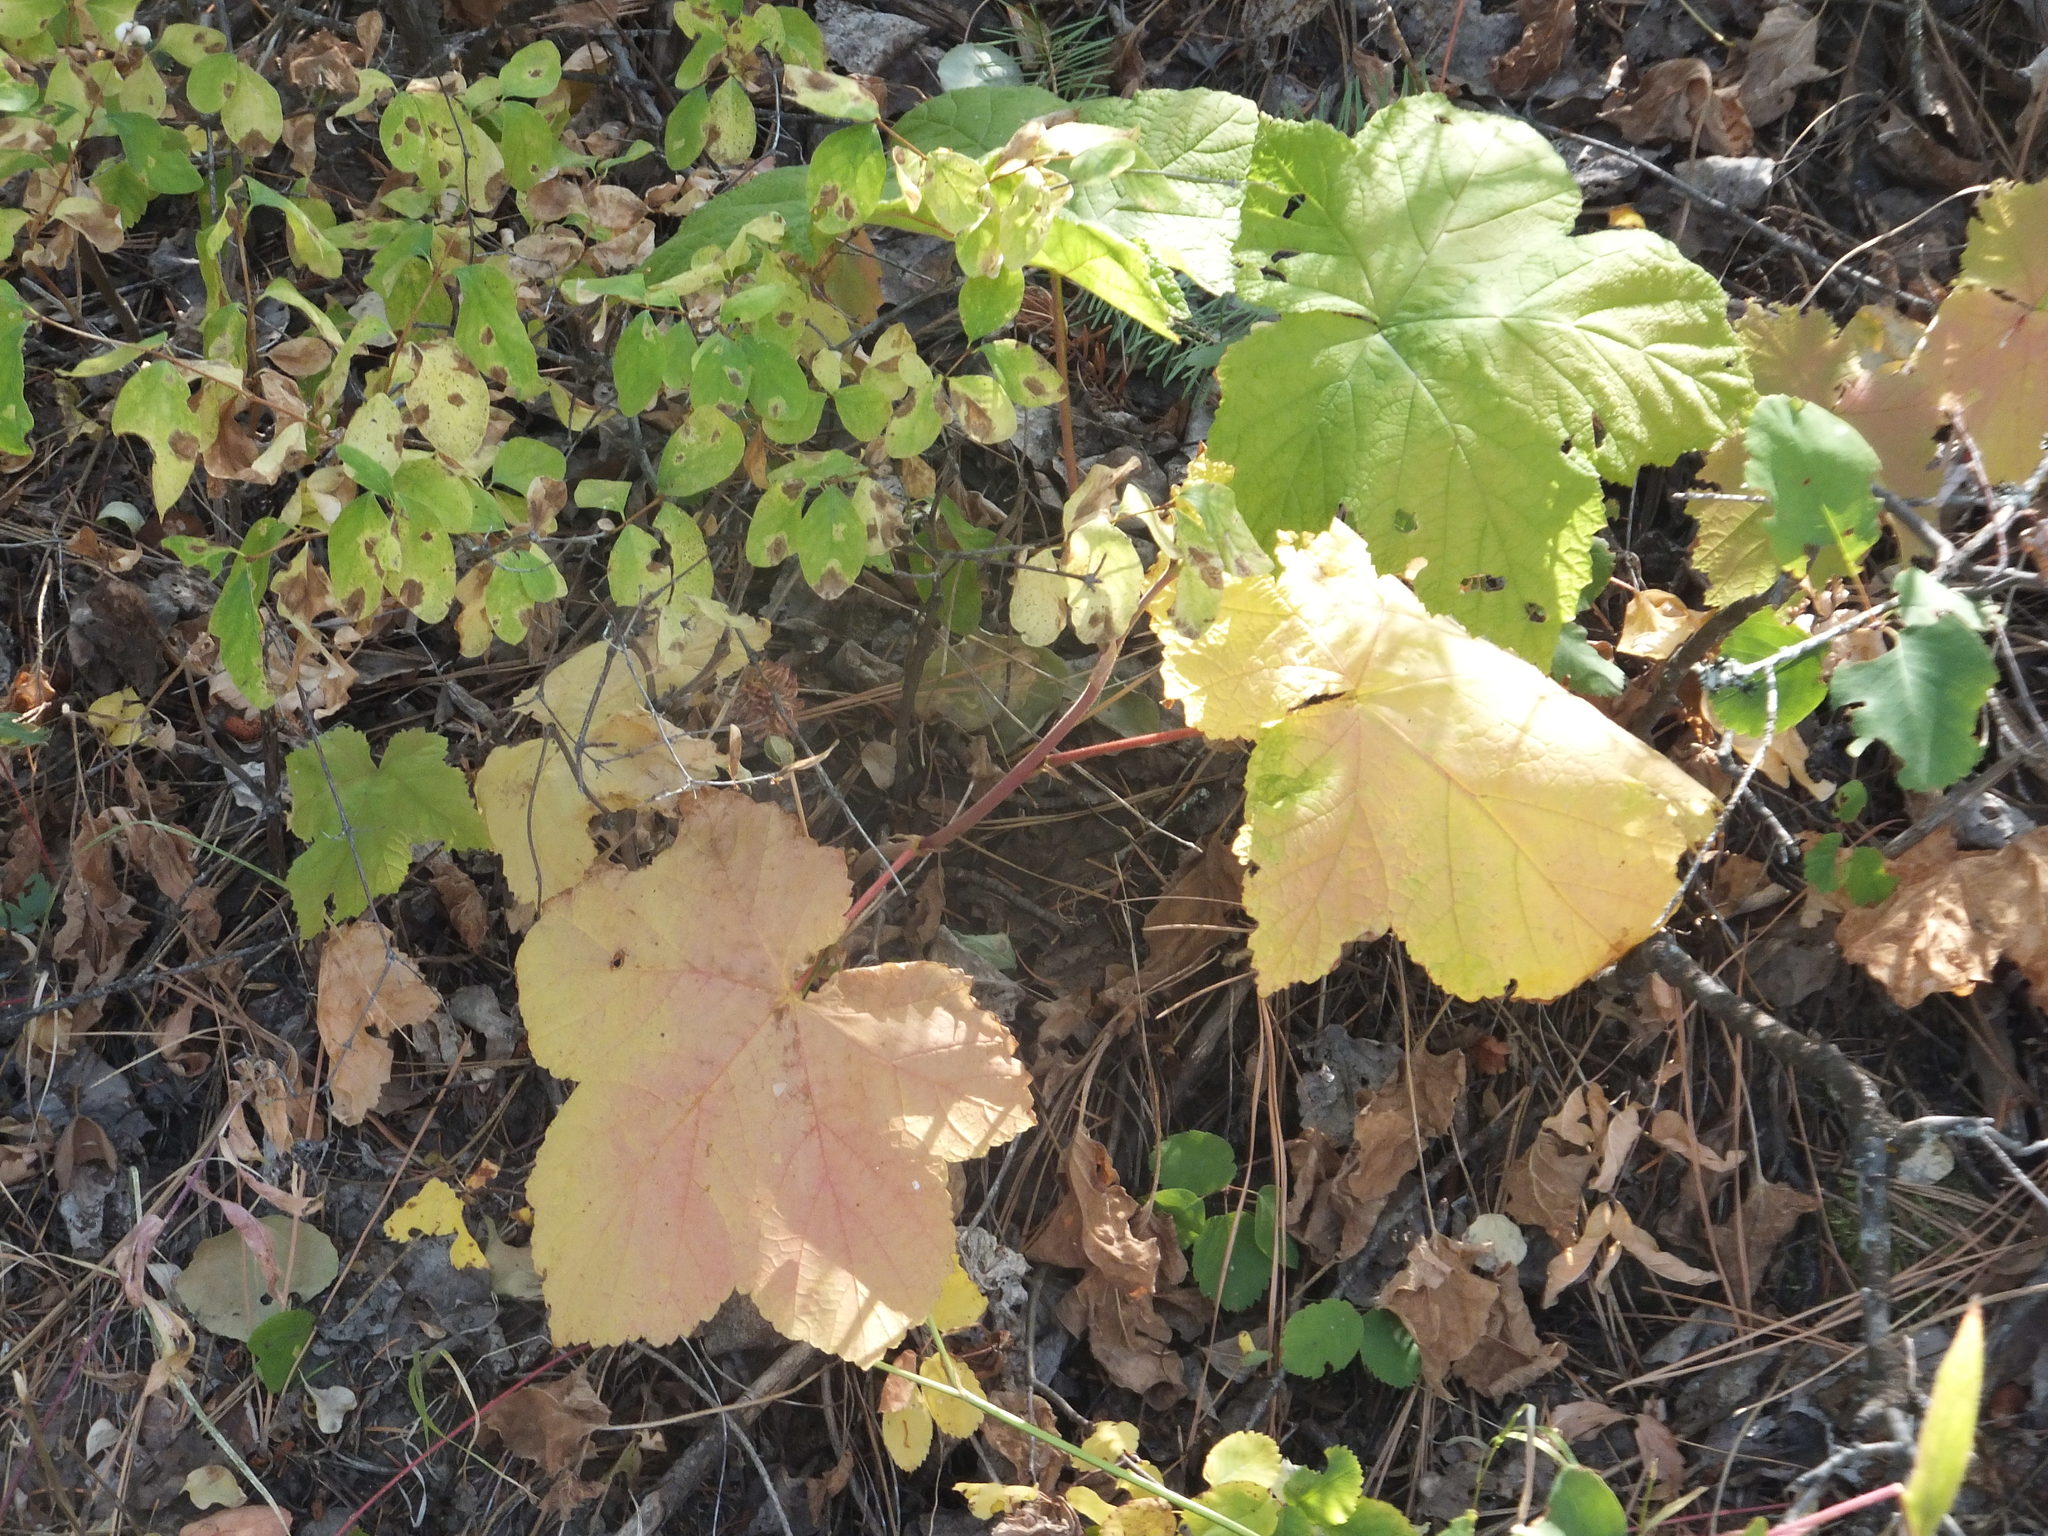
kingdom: Plantae
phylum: Tracheophyta
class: Magnoliopsida
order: Rosales
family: Rosaceae
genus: Rubus
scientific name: Rubus parviflorus
